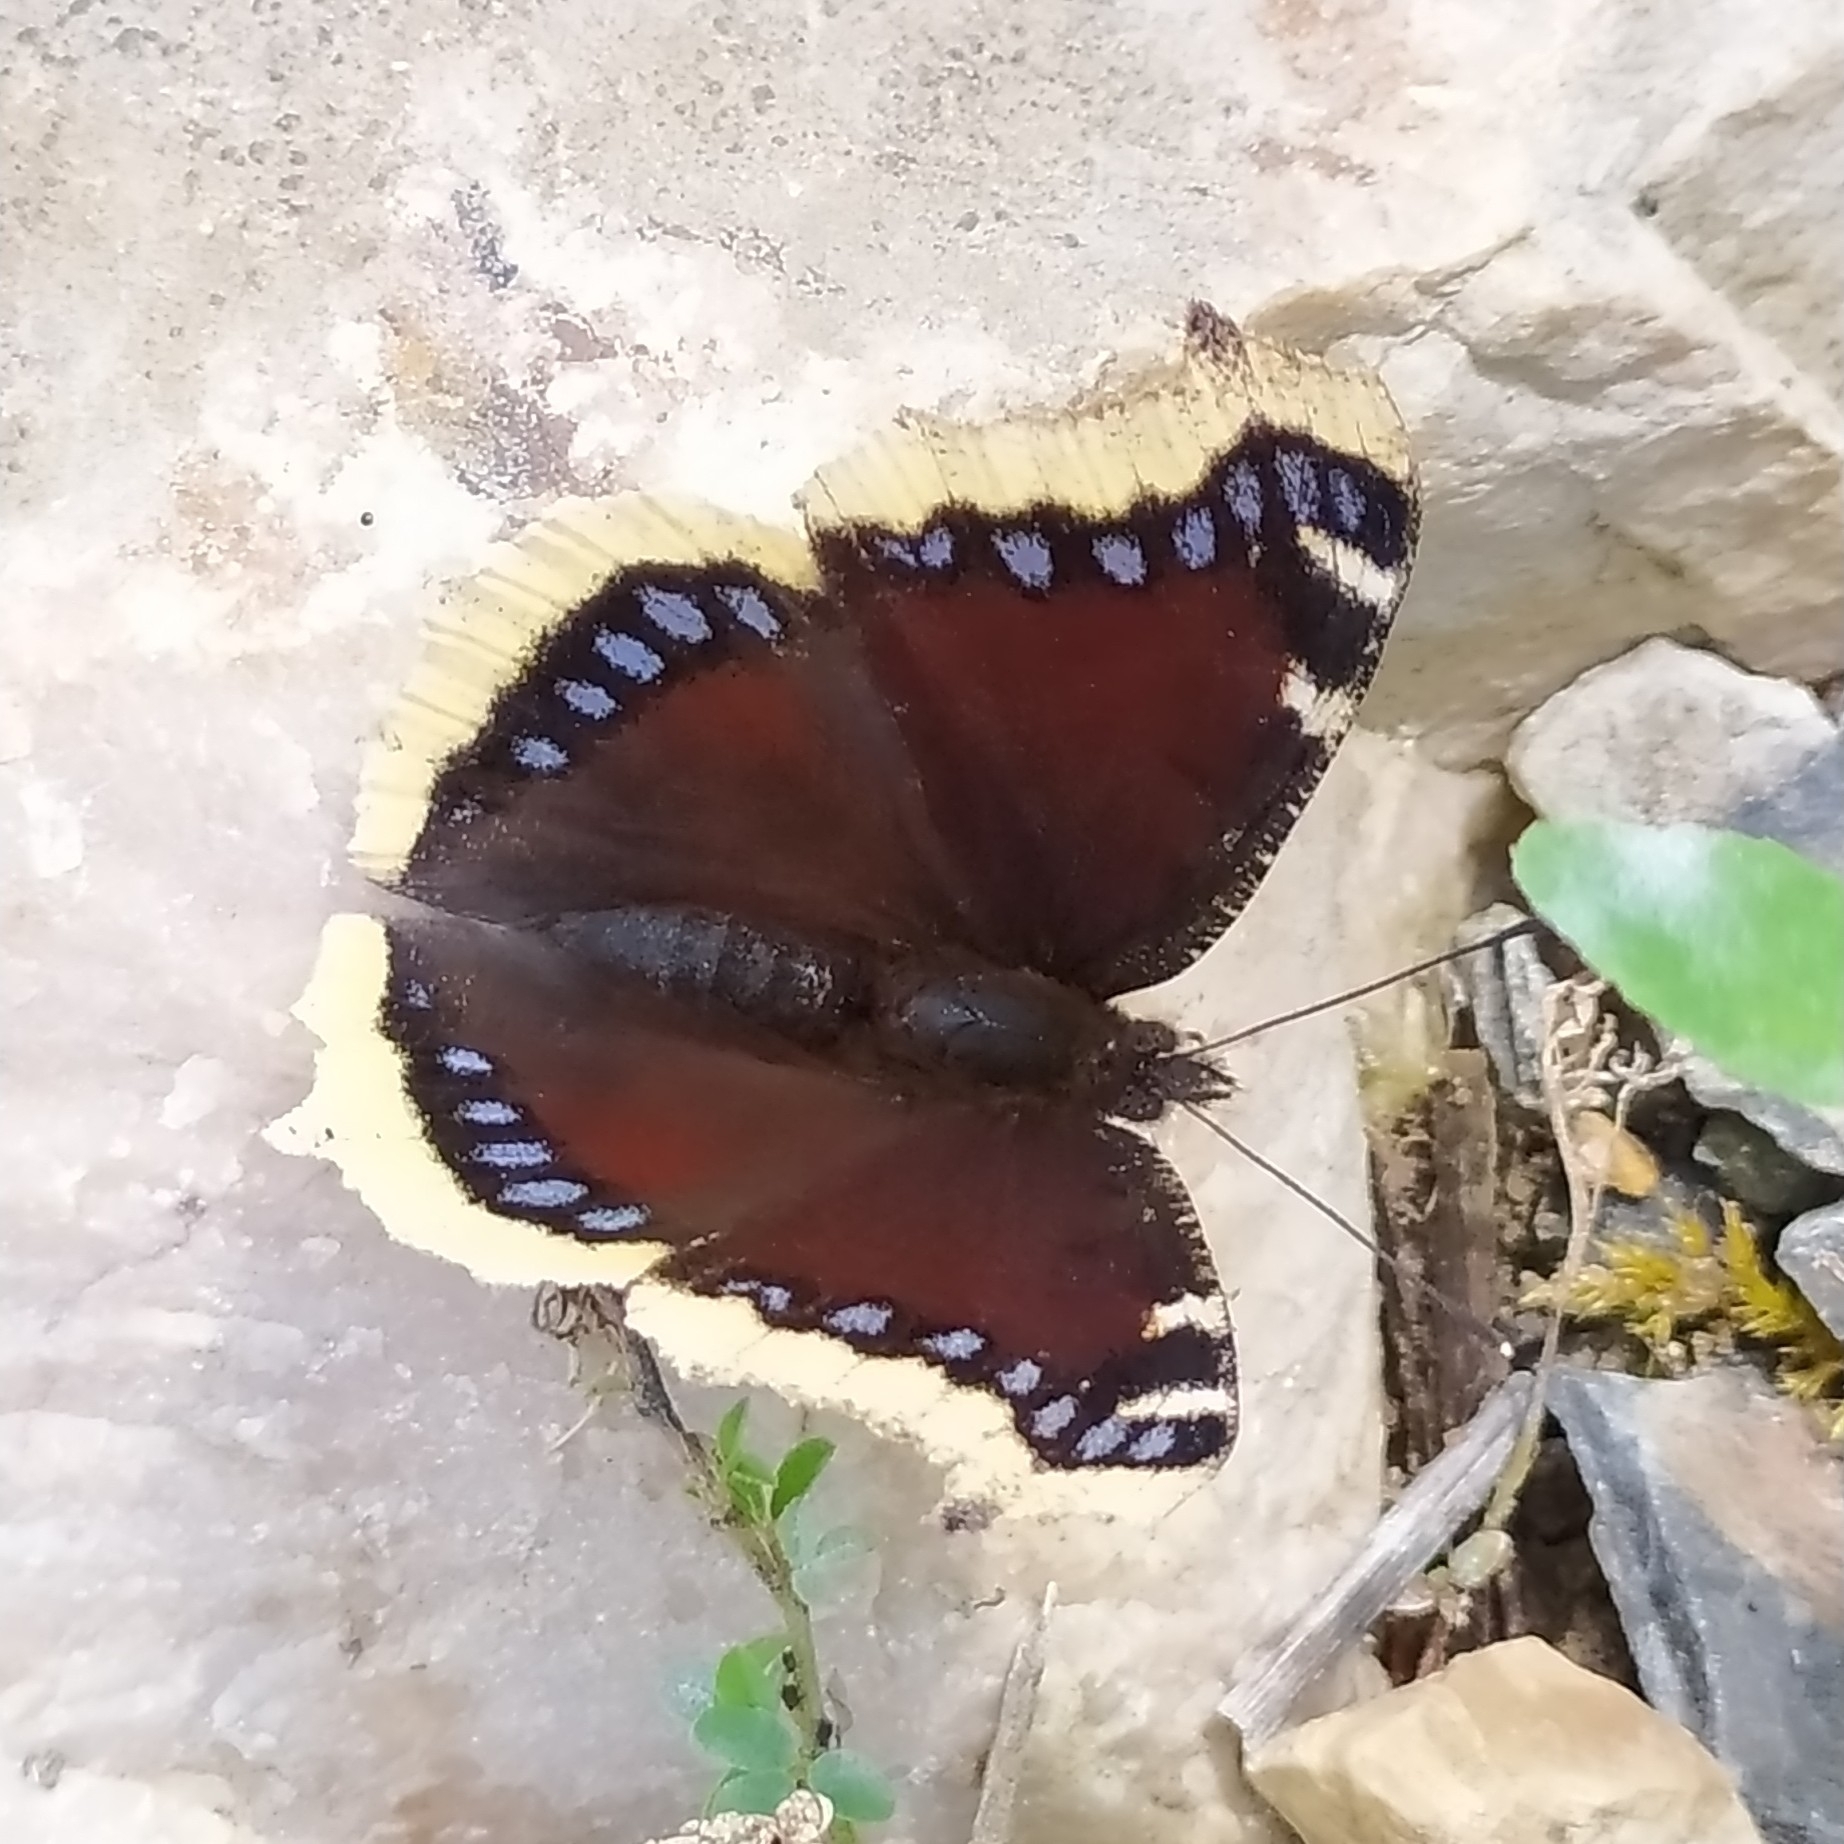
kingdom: Animalia
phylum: Arthropoda
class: Insecta
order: Lepidoptera
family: Nymphalidae
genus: Nymphalis
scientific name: Nymphalis antiopa
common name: Camberwell beauty
